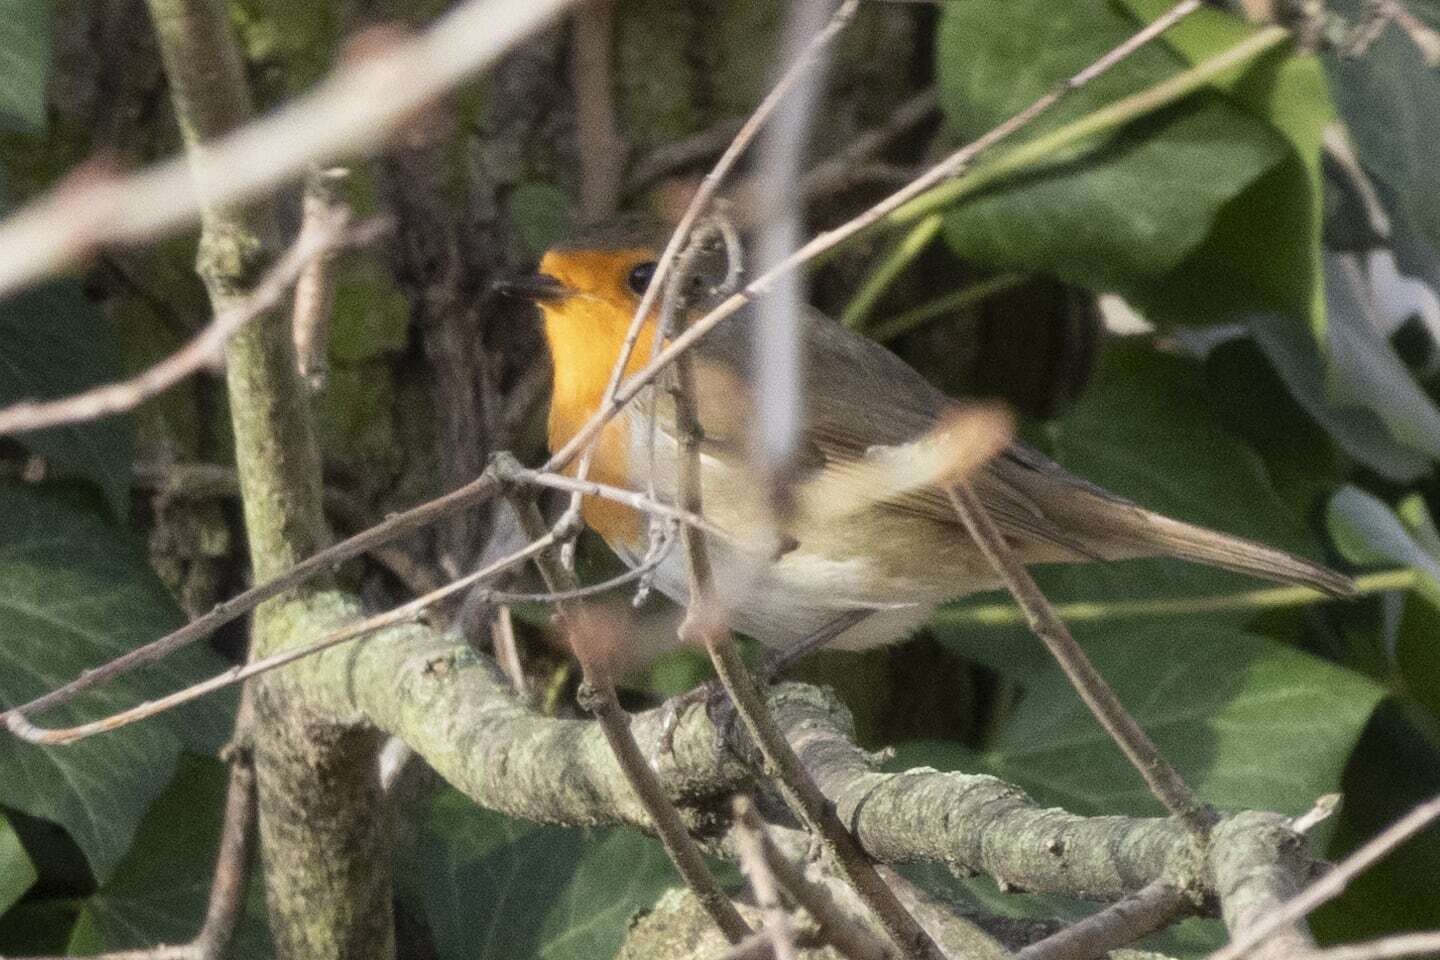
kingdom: Animalia
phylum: Chordata
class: Aves
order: Passeriformes
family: Muscicapidae
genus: Erithacus
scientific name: Erithacus rubecula
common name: European robin
